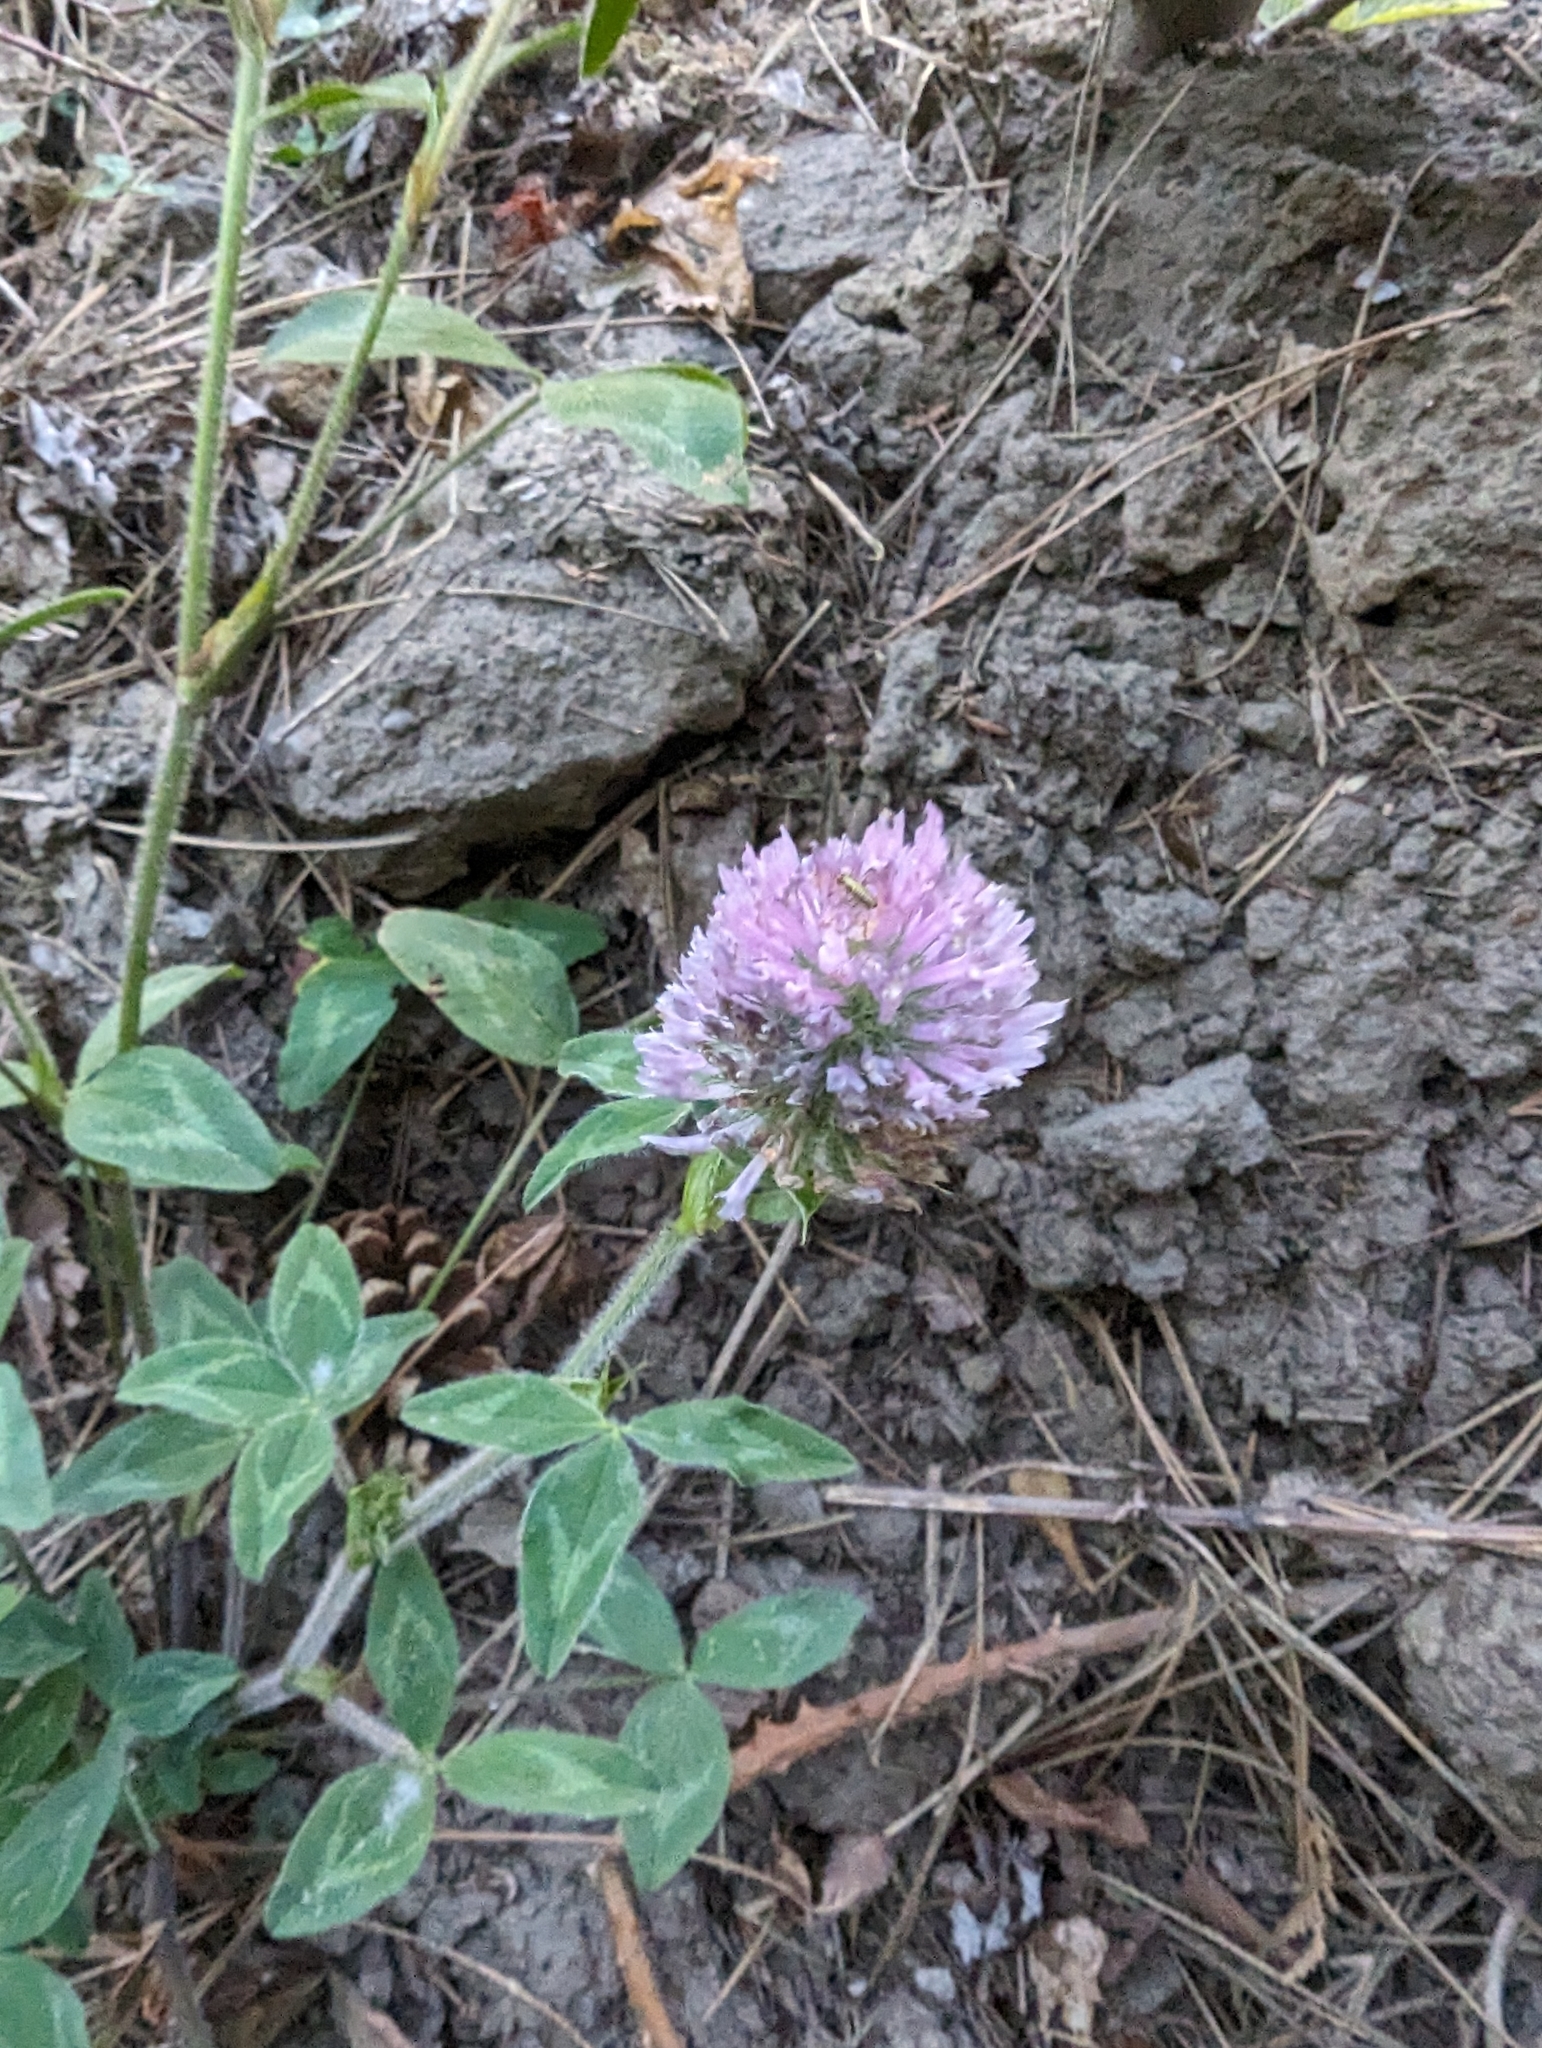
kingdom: Plantae
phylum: Tracheophyta
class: Magnoliopsida
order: Fabales
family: Fabaceae
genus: Trifolium
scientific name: Trifolium pratense
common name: Red clover
